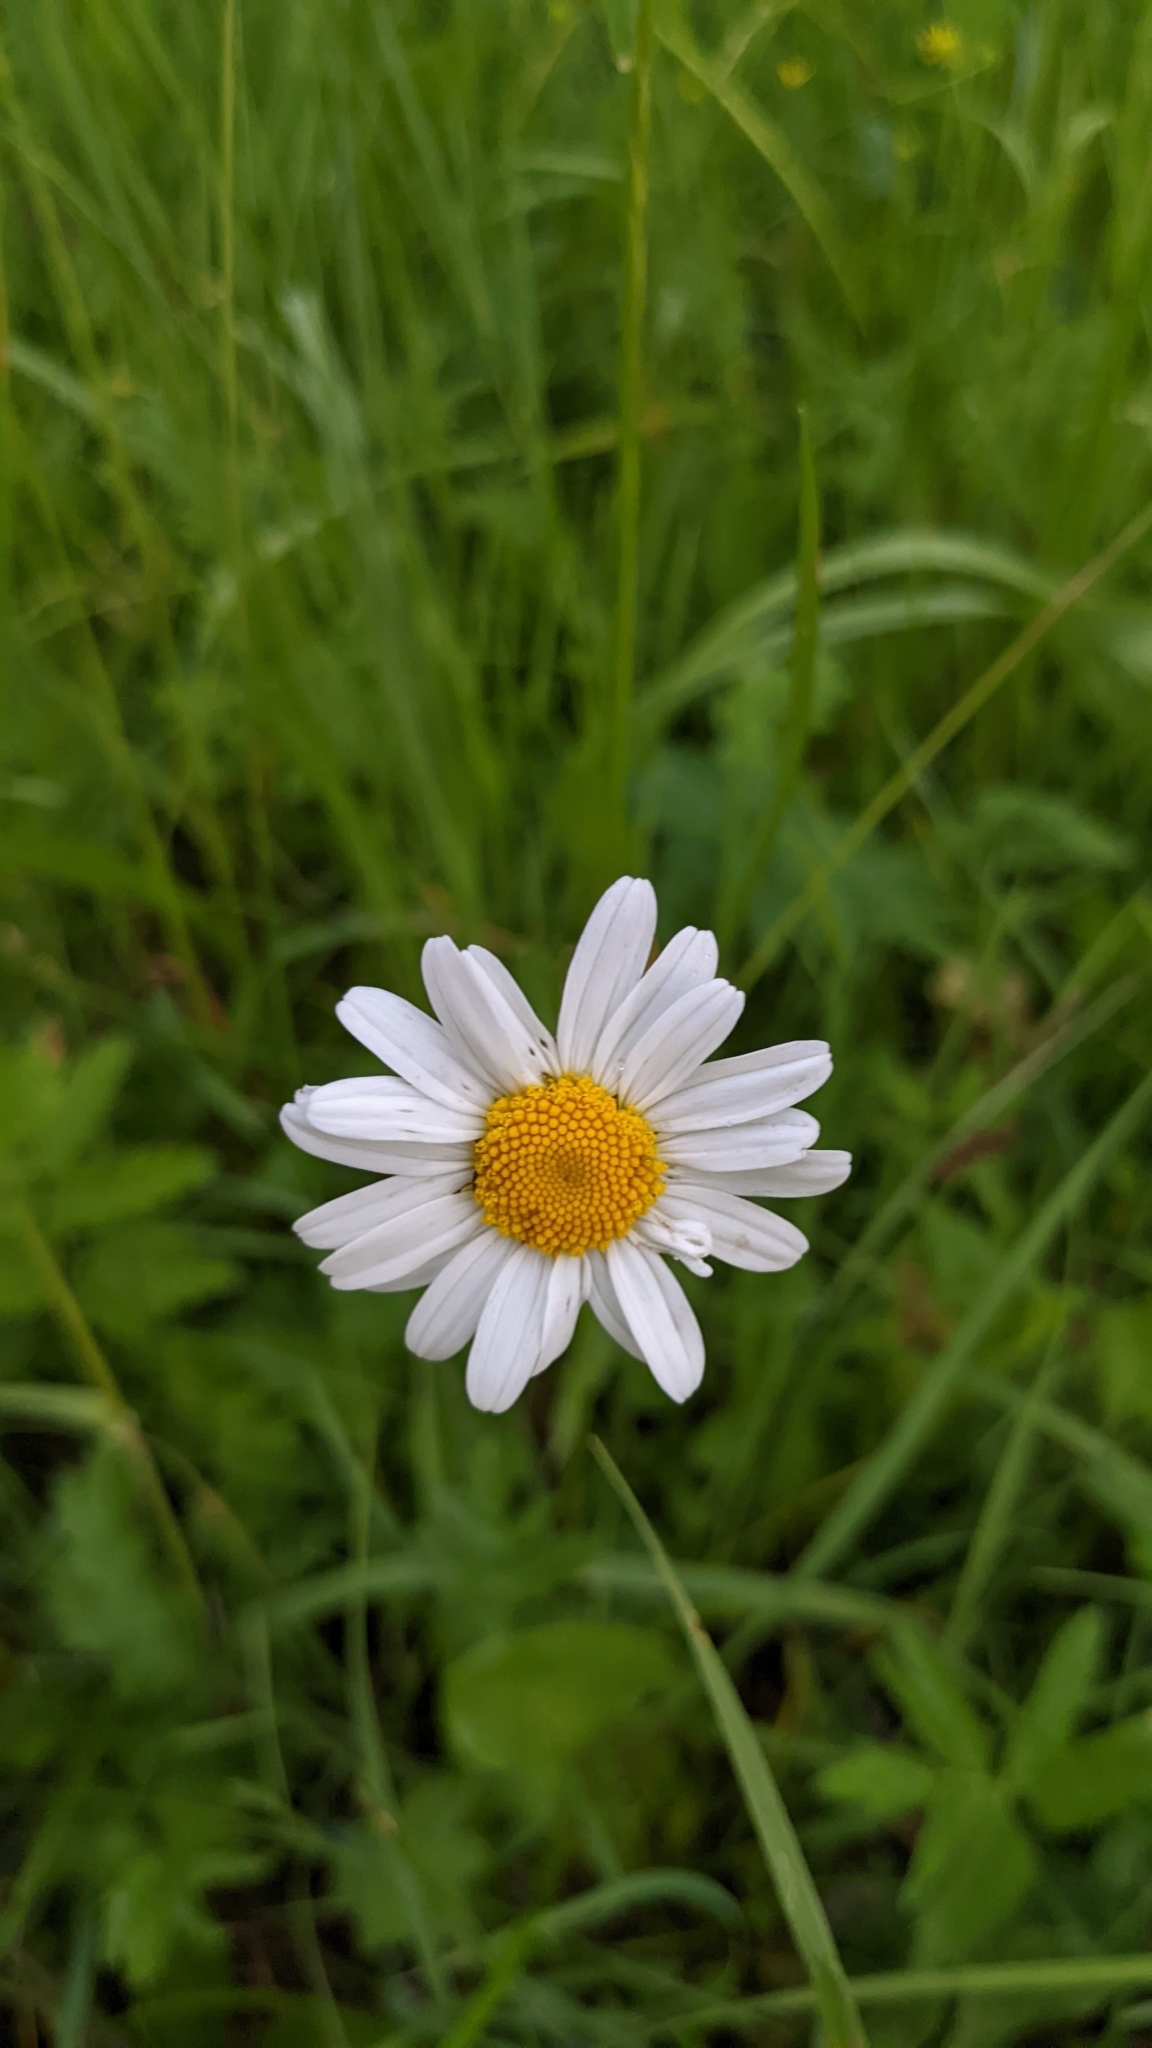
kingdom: Plantae
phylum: Tracheophyta
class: Magnoliopsida
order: Asterales
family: Asteraceae
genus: Leucanthemum
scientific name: Leucanthemum vulgare
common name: Oxeye daisy
